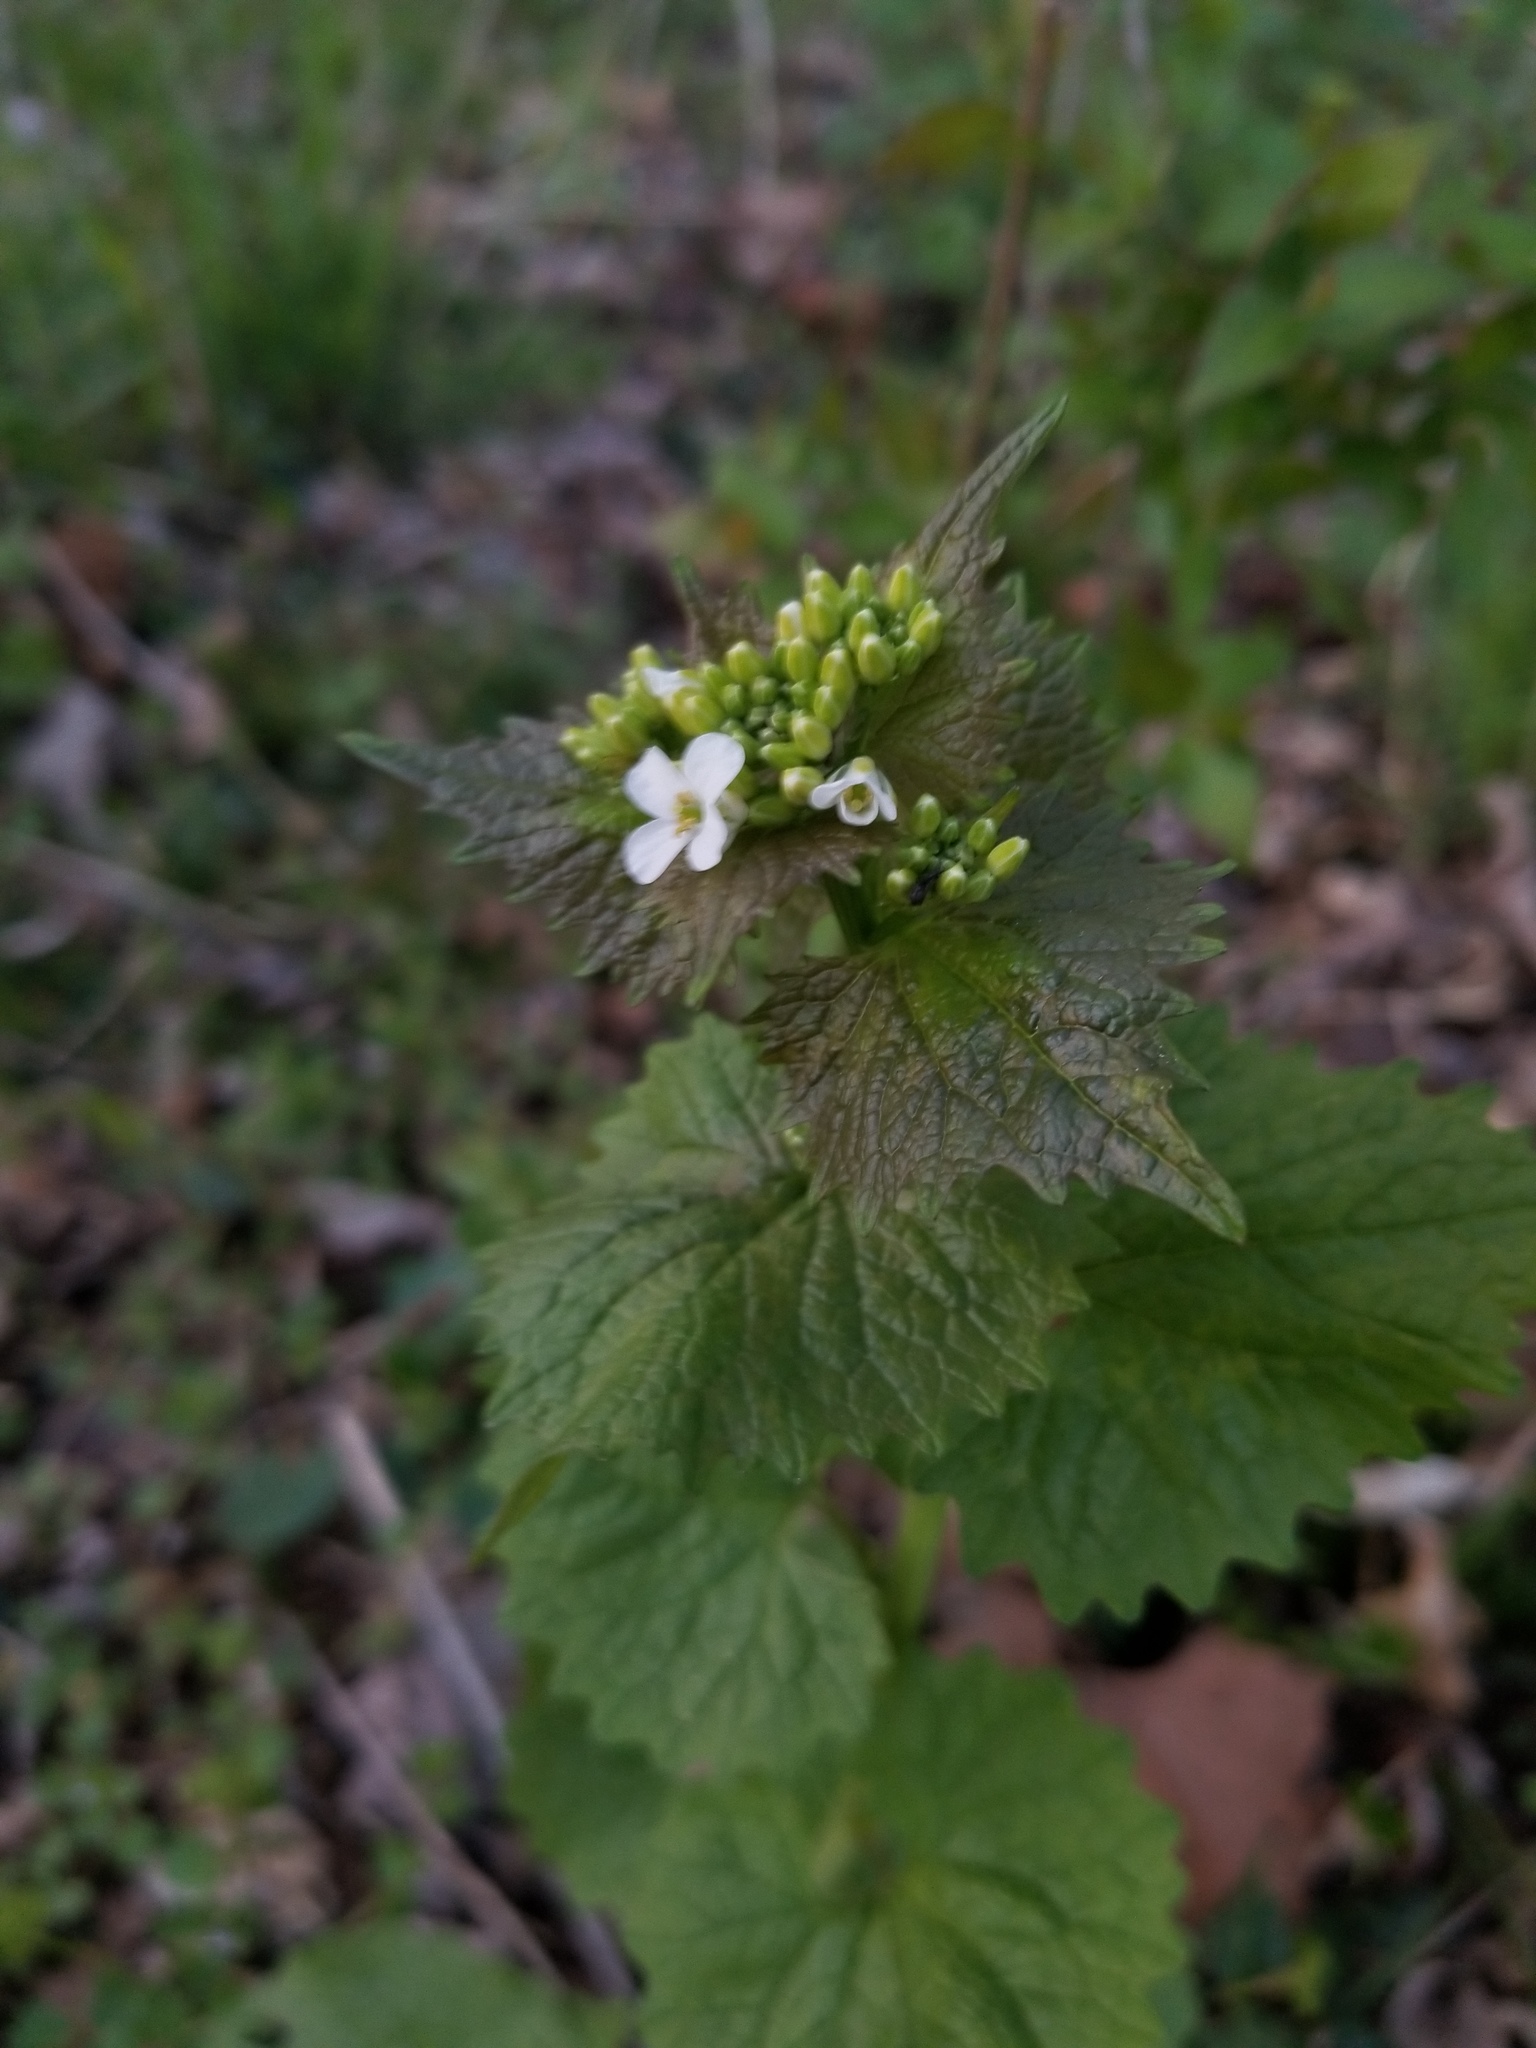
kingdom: Plantae
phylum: Tracheophyta
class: Magnoliopsida
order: Brassicales
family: Brassicaceae
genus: Alliaria
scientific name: Alliaria petiolata
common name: Garlic mustard
